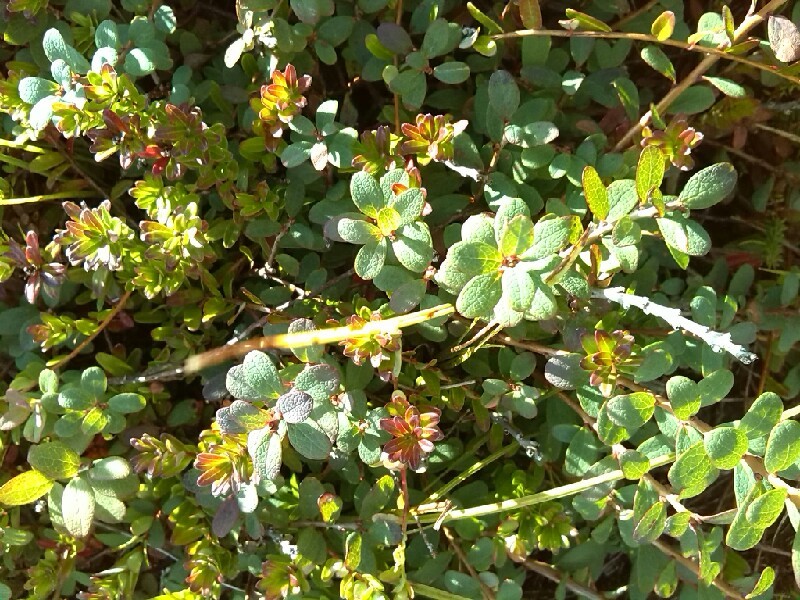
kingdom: Plantae
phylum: Tracheophyta
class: Magnoliopsida
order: Ericales
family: Ericaceae
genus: Vaccinium
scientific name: Vaccinium uliginosum
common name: Bog bilberry
